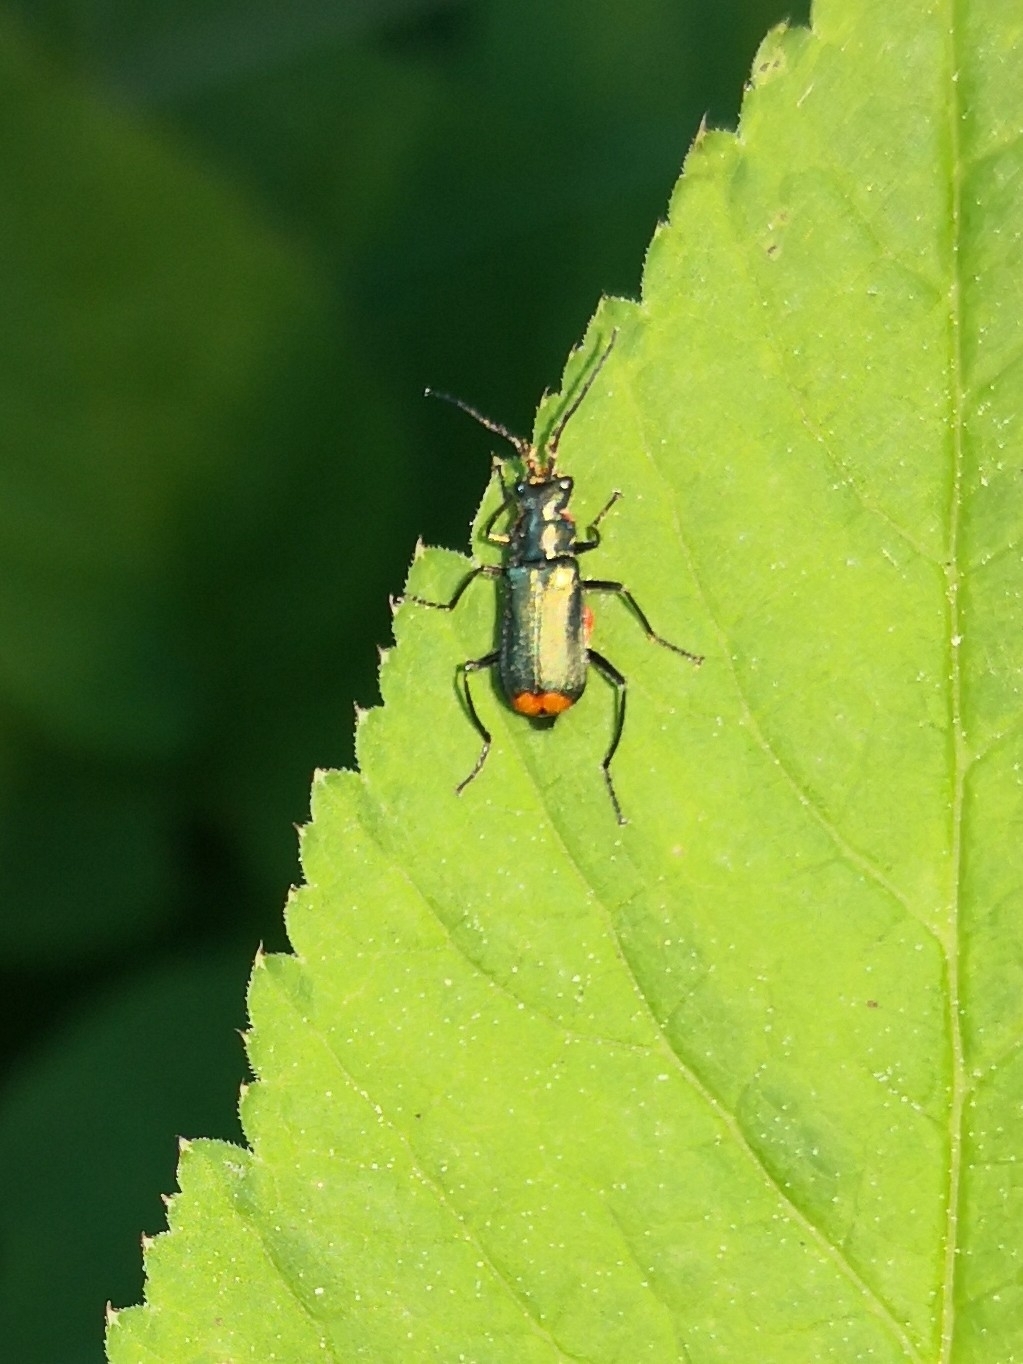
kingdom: Animalia
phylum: Arthropoda
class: Insecta
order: Coleoptera
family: Melyridae
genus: Malachius
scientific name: Malachius bipustulatus
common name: Malachite beetle
